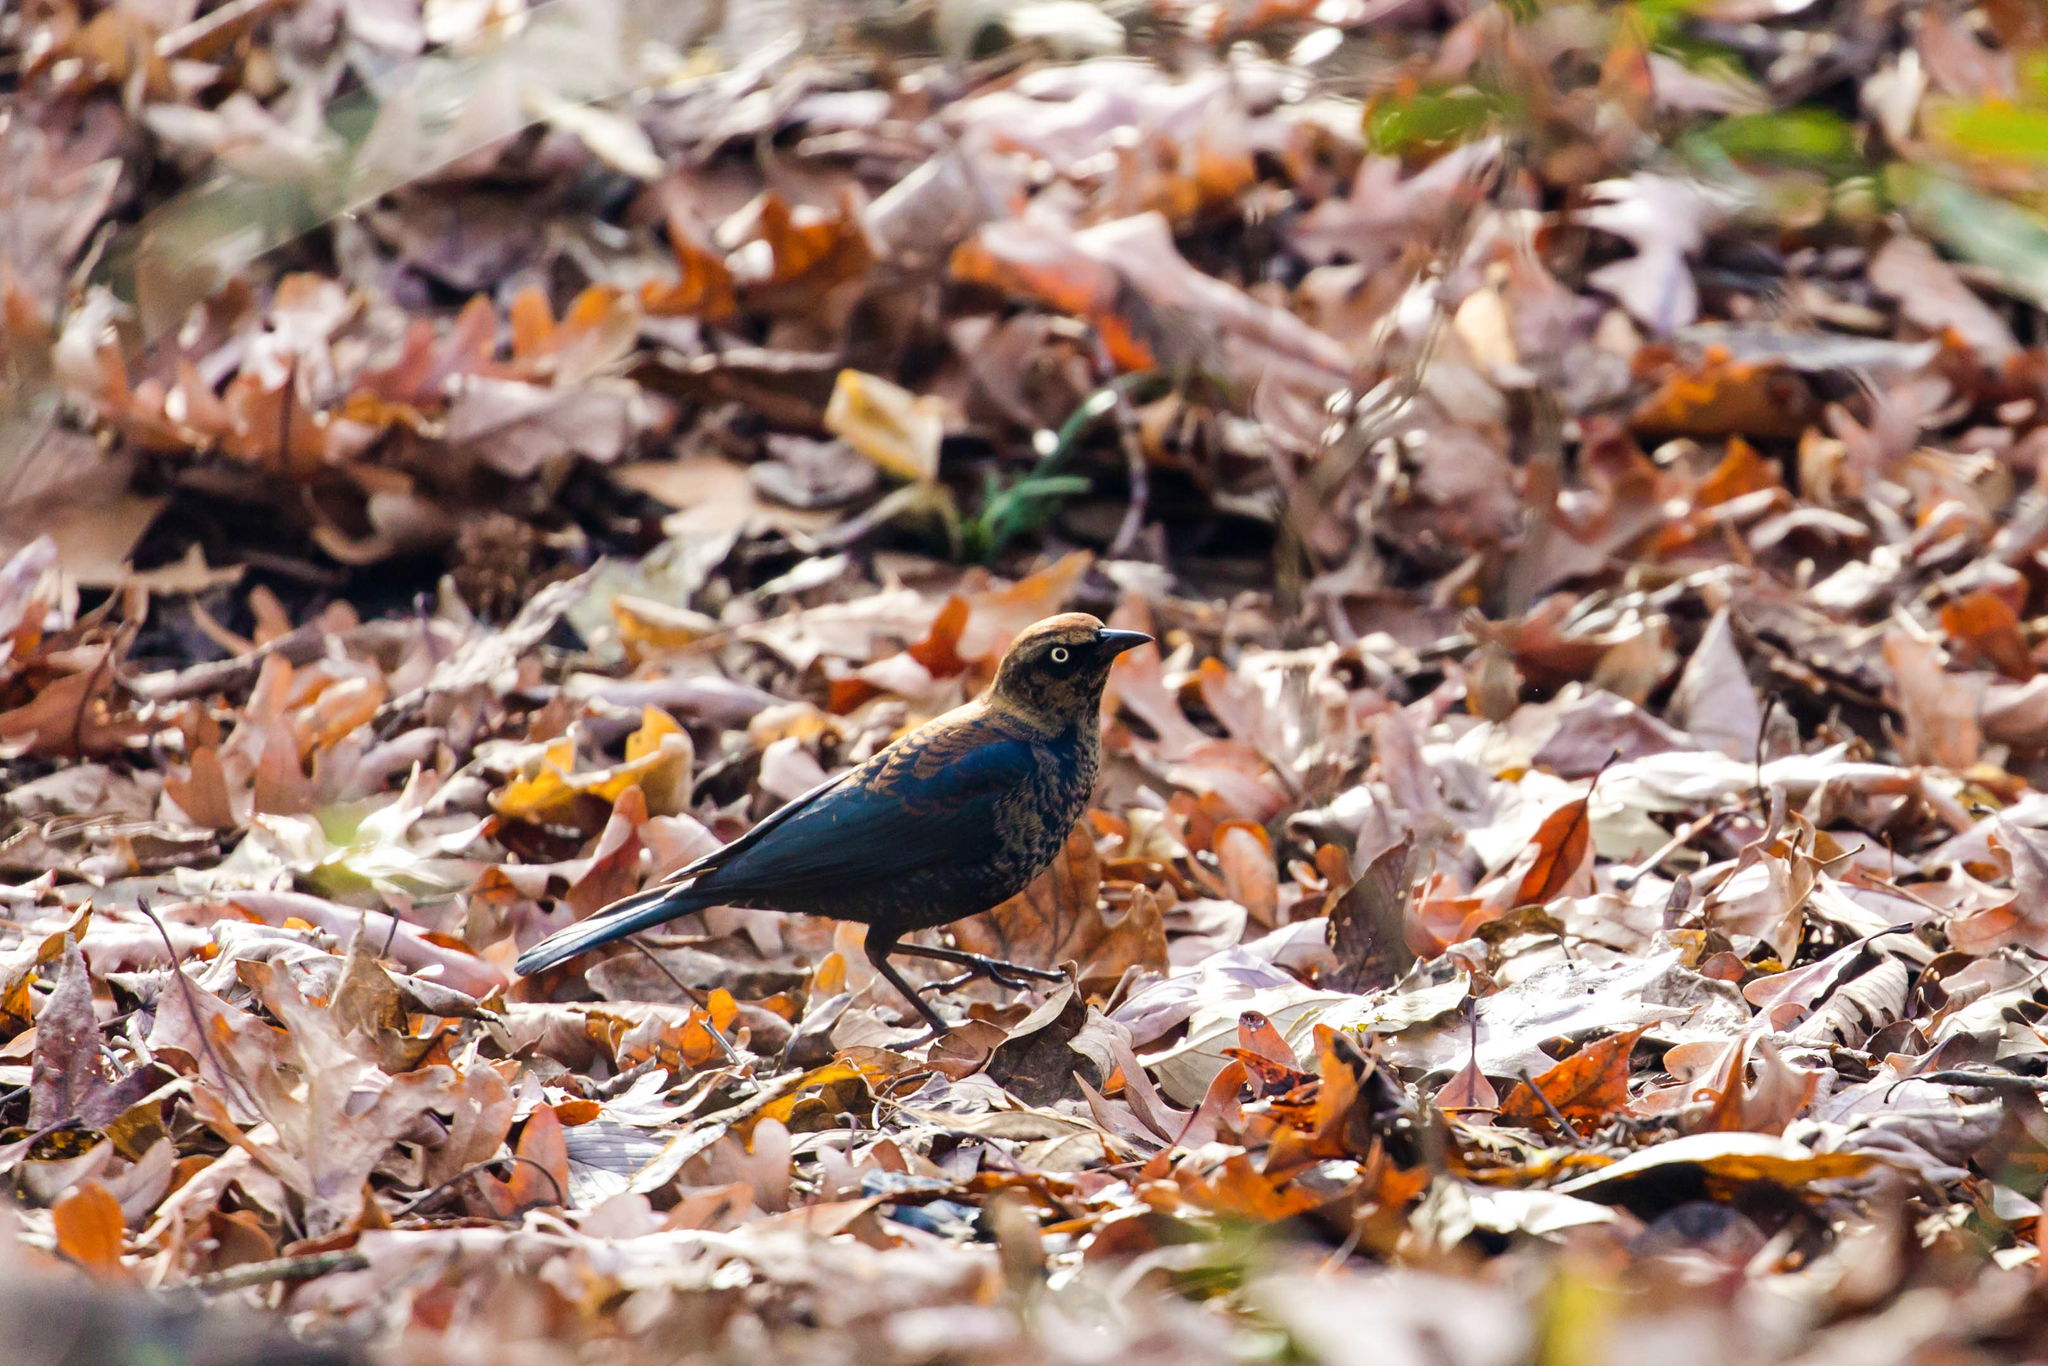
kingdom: Animalia
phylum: Chordata
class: Aves
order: Passeriformes
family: Icteridae
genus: Euphagus
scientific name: Euphagus carolinus
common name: Rusty blackbird
